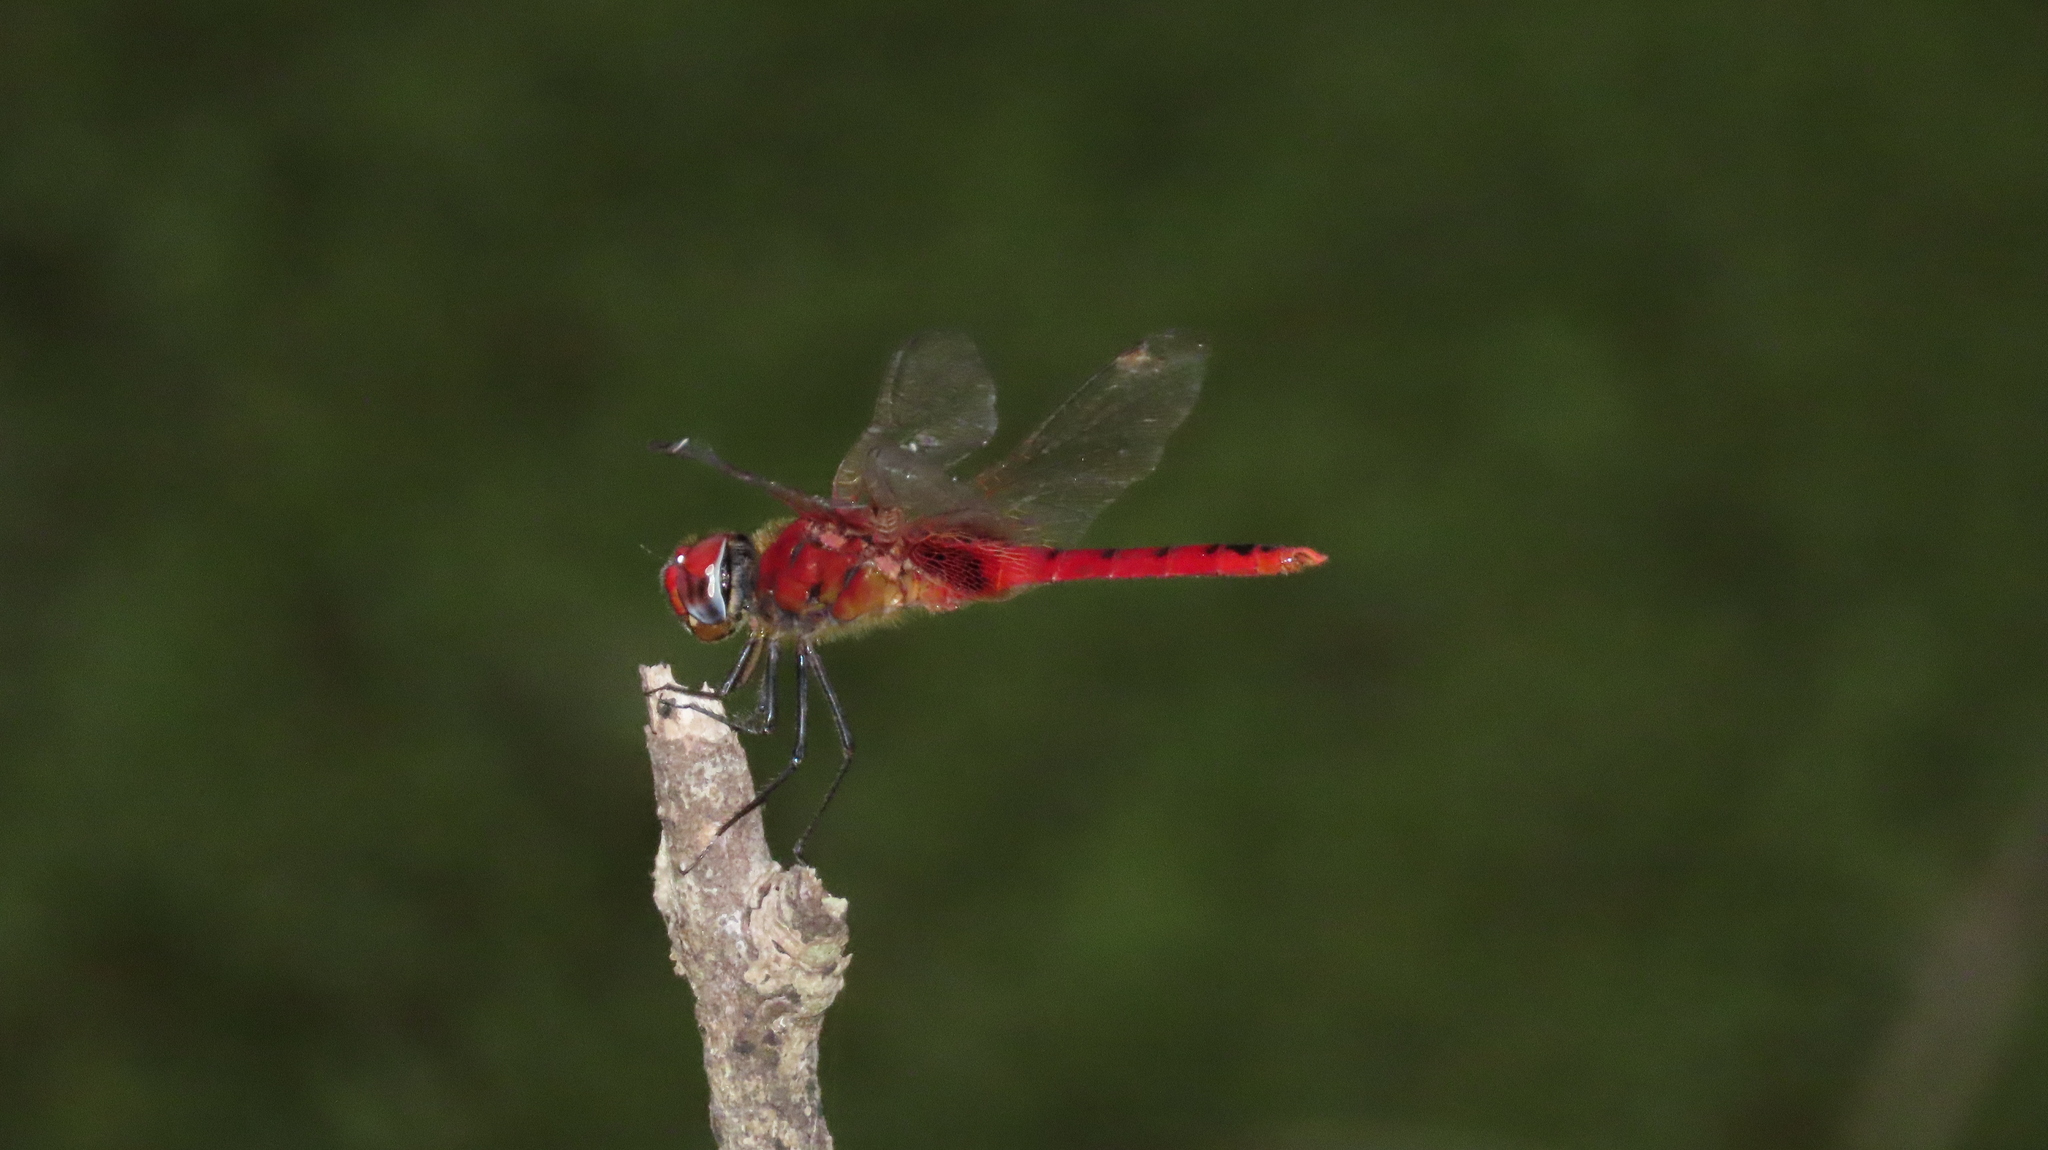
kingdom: Animalia
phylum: Arthropoda
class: Insecta
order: Odonata
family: Libellulidae
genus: Urothemis
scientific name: Urothemis signata
